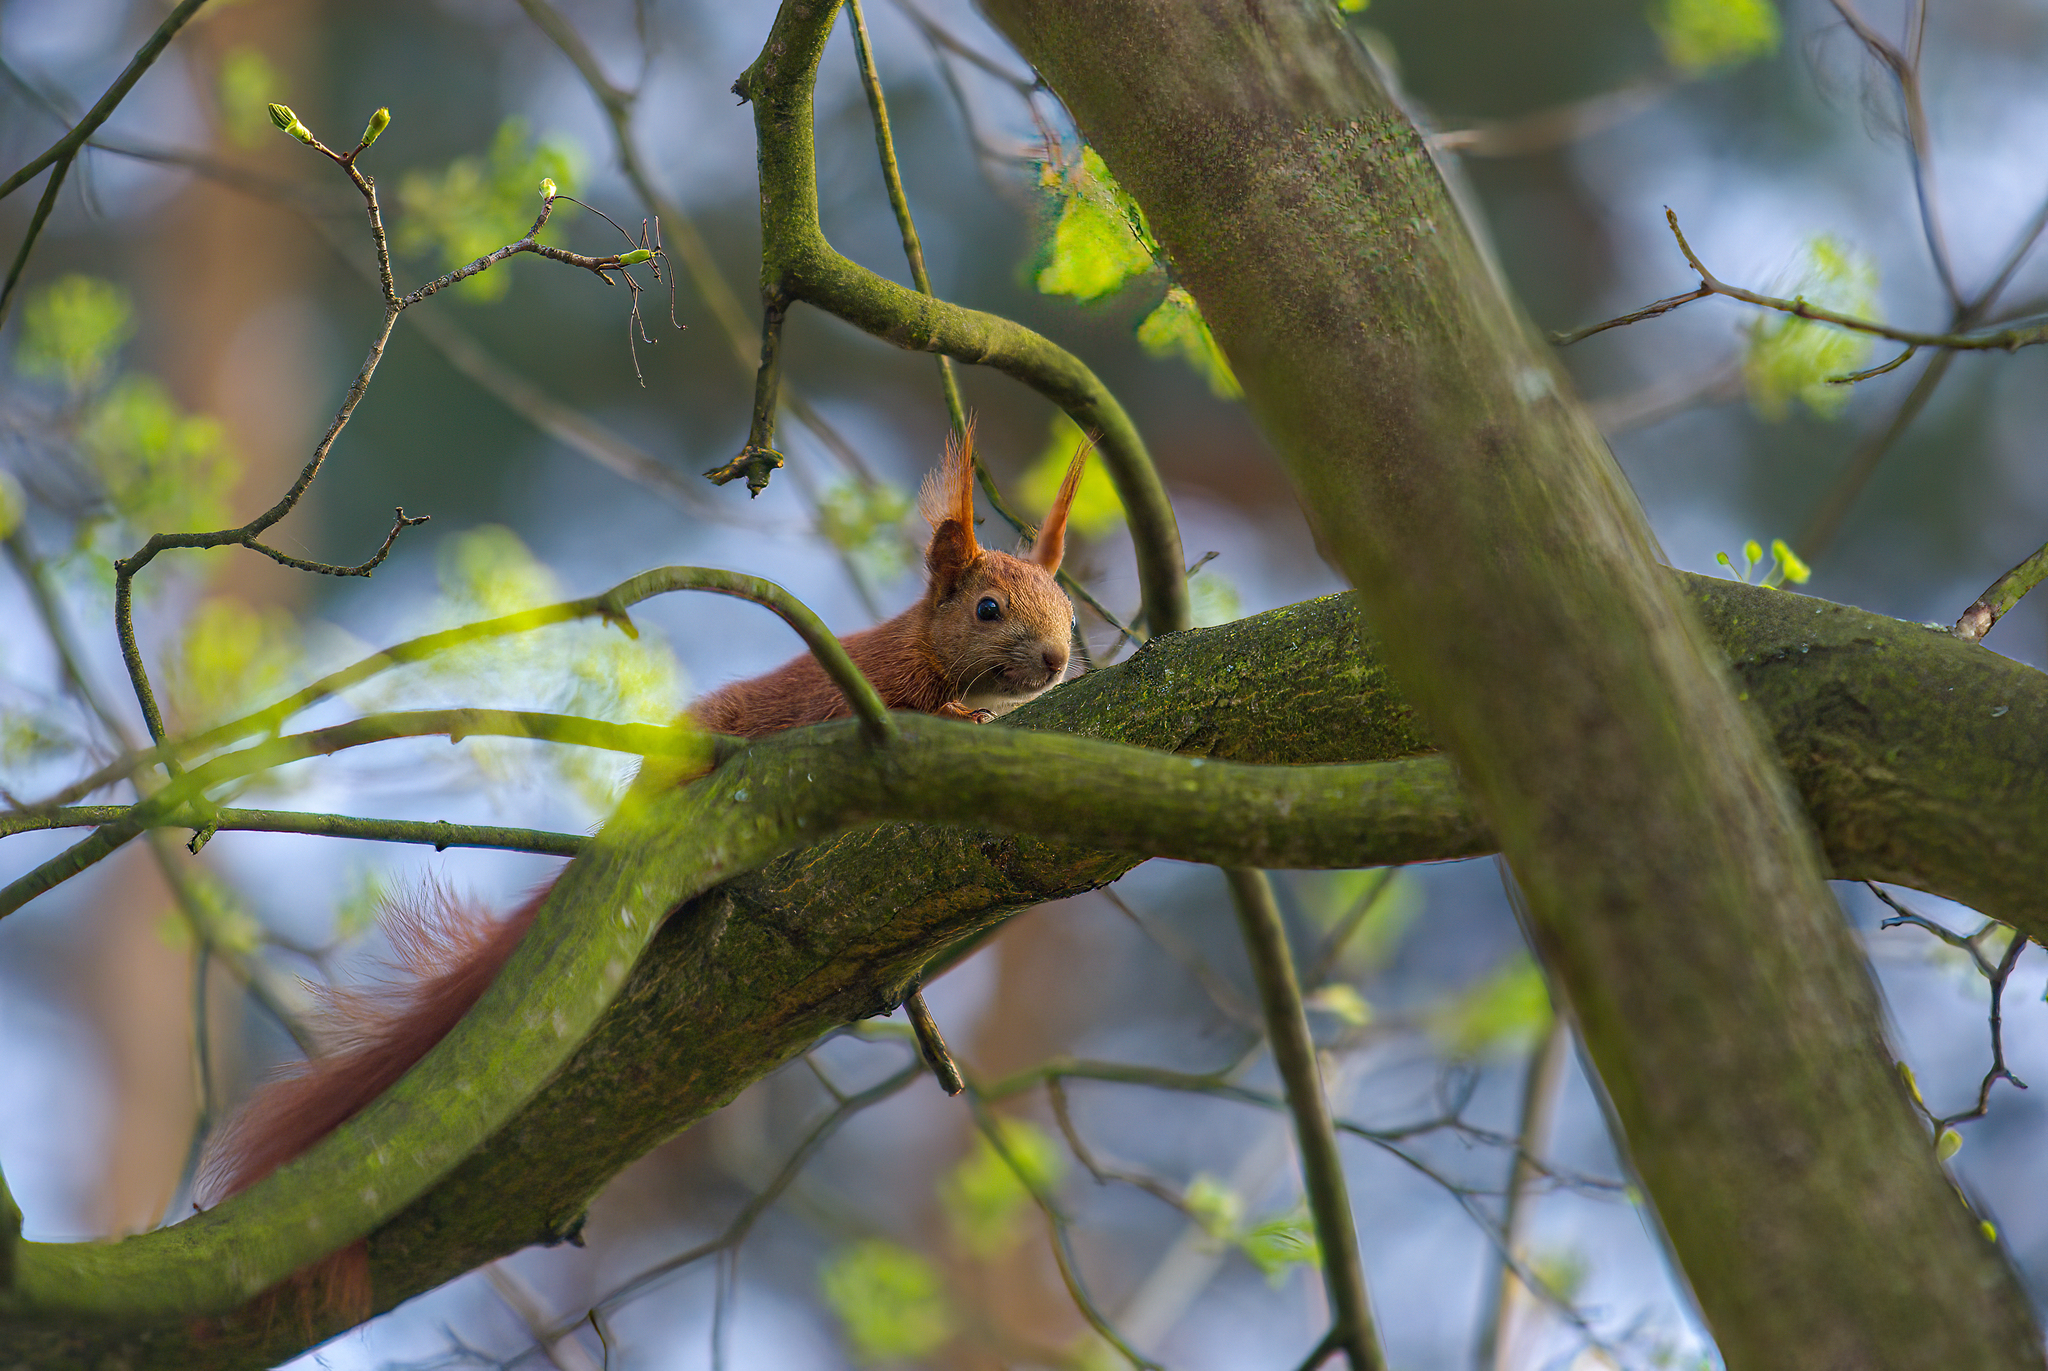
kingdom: Animalia
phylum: Chordata
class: Mammalia
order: Rodentia
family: Sciuridae
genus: Sciurus
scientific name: Sciurus vulgaris
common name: Eurasian red squirrel
